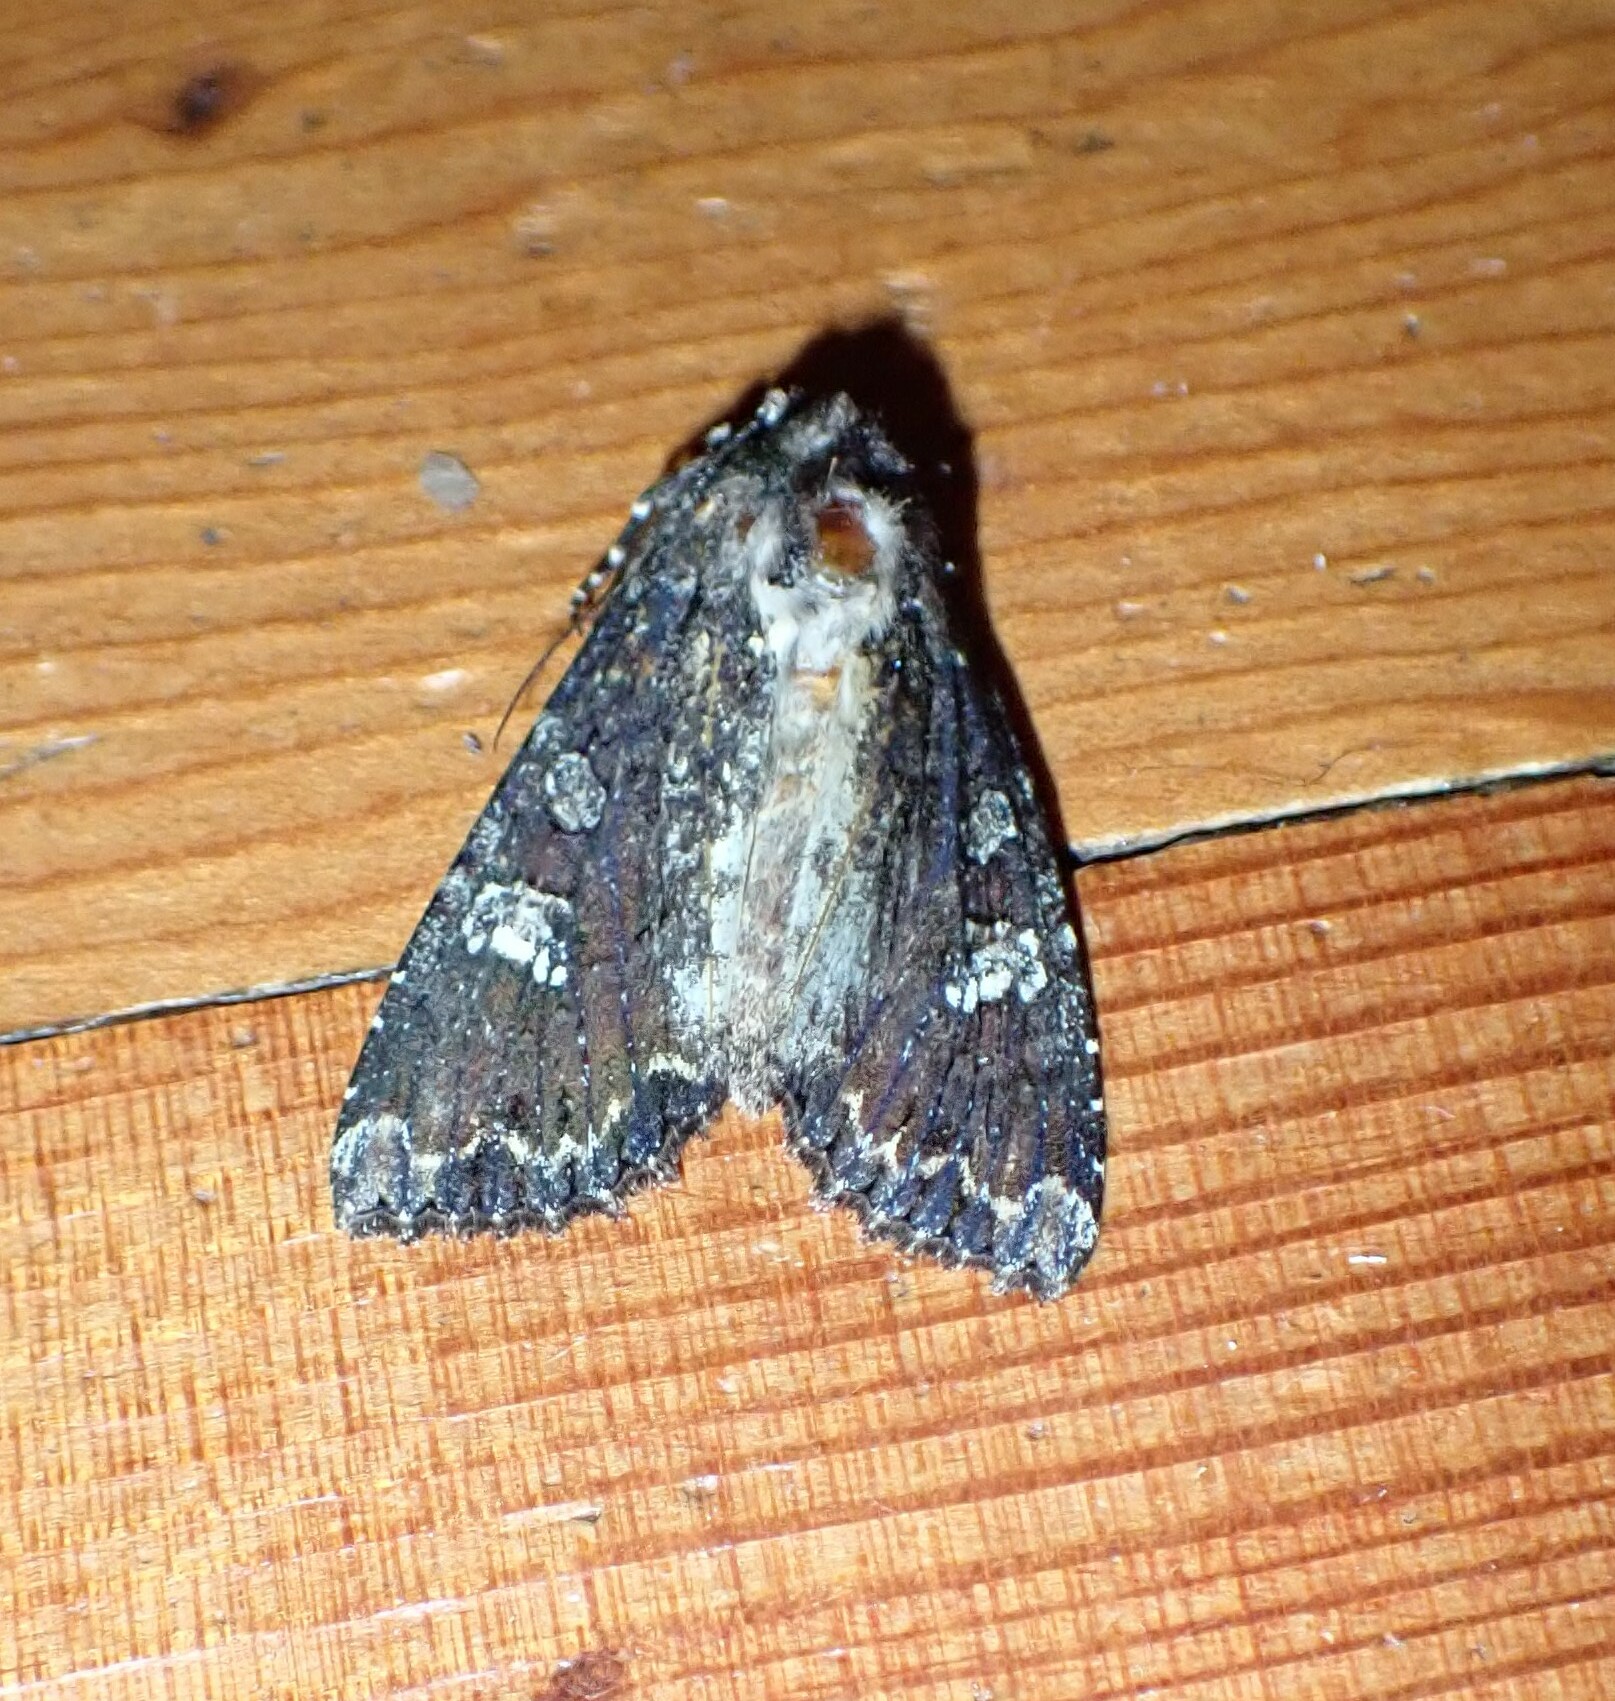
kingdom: Animalia
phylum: Arthropoda
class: Insecta
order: Lepidoptera
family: Noctuidae
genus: Apamea
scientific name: Apamea amputatrix
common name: Yellow-headed cutworm moth
